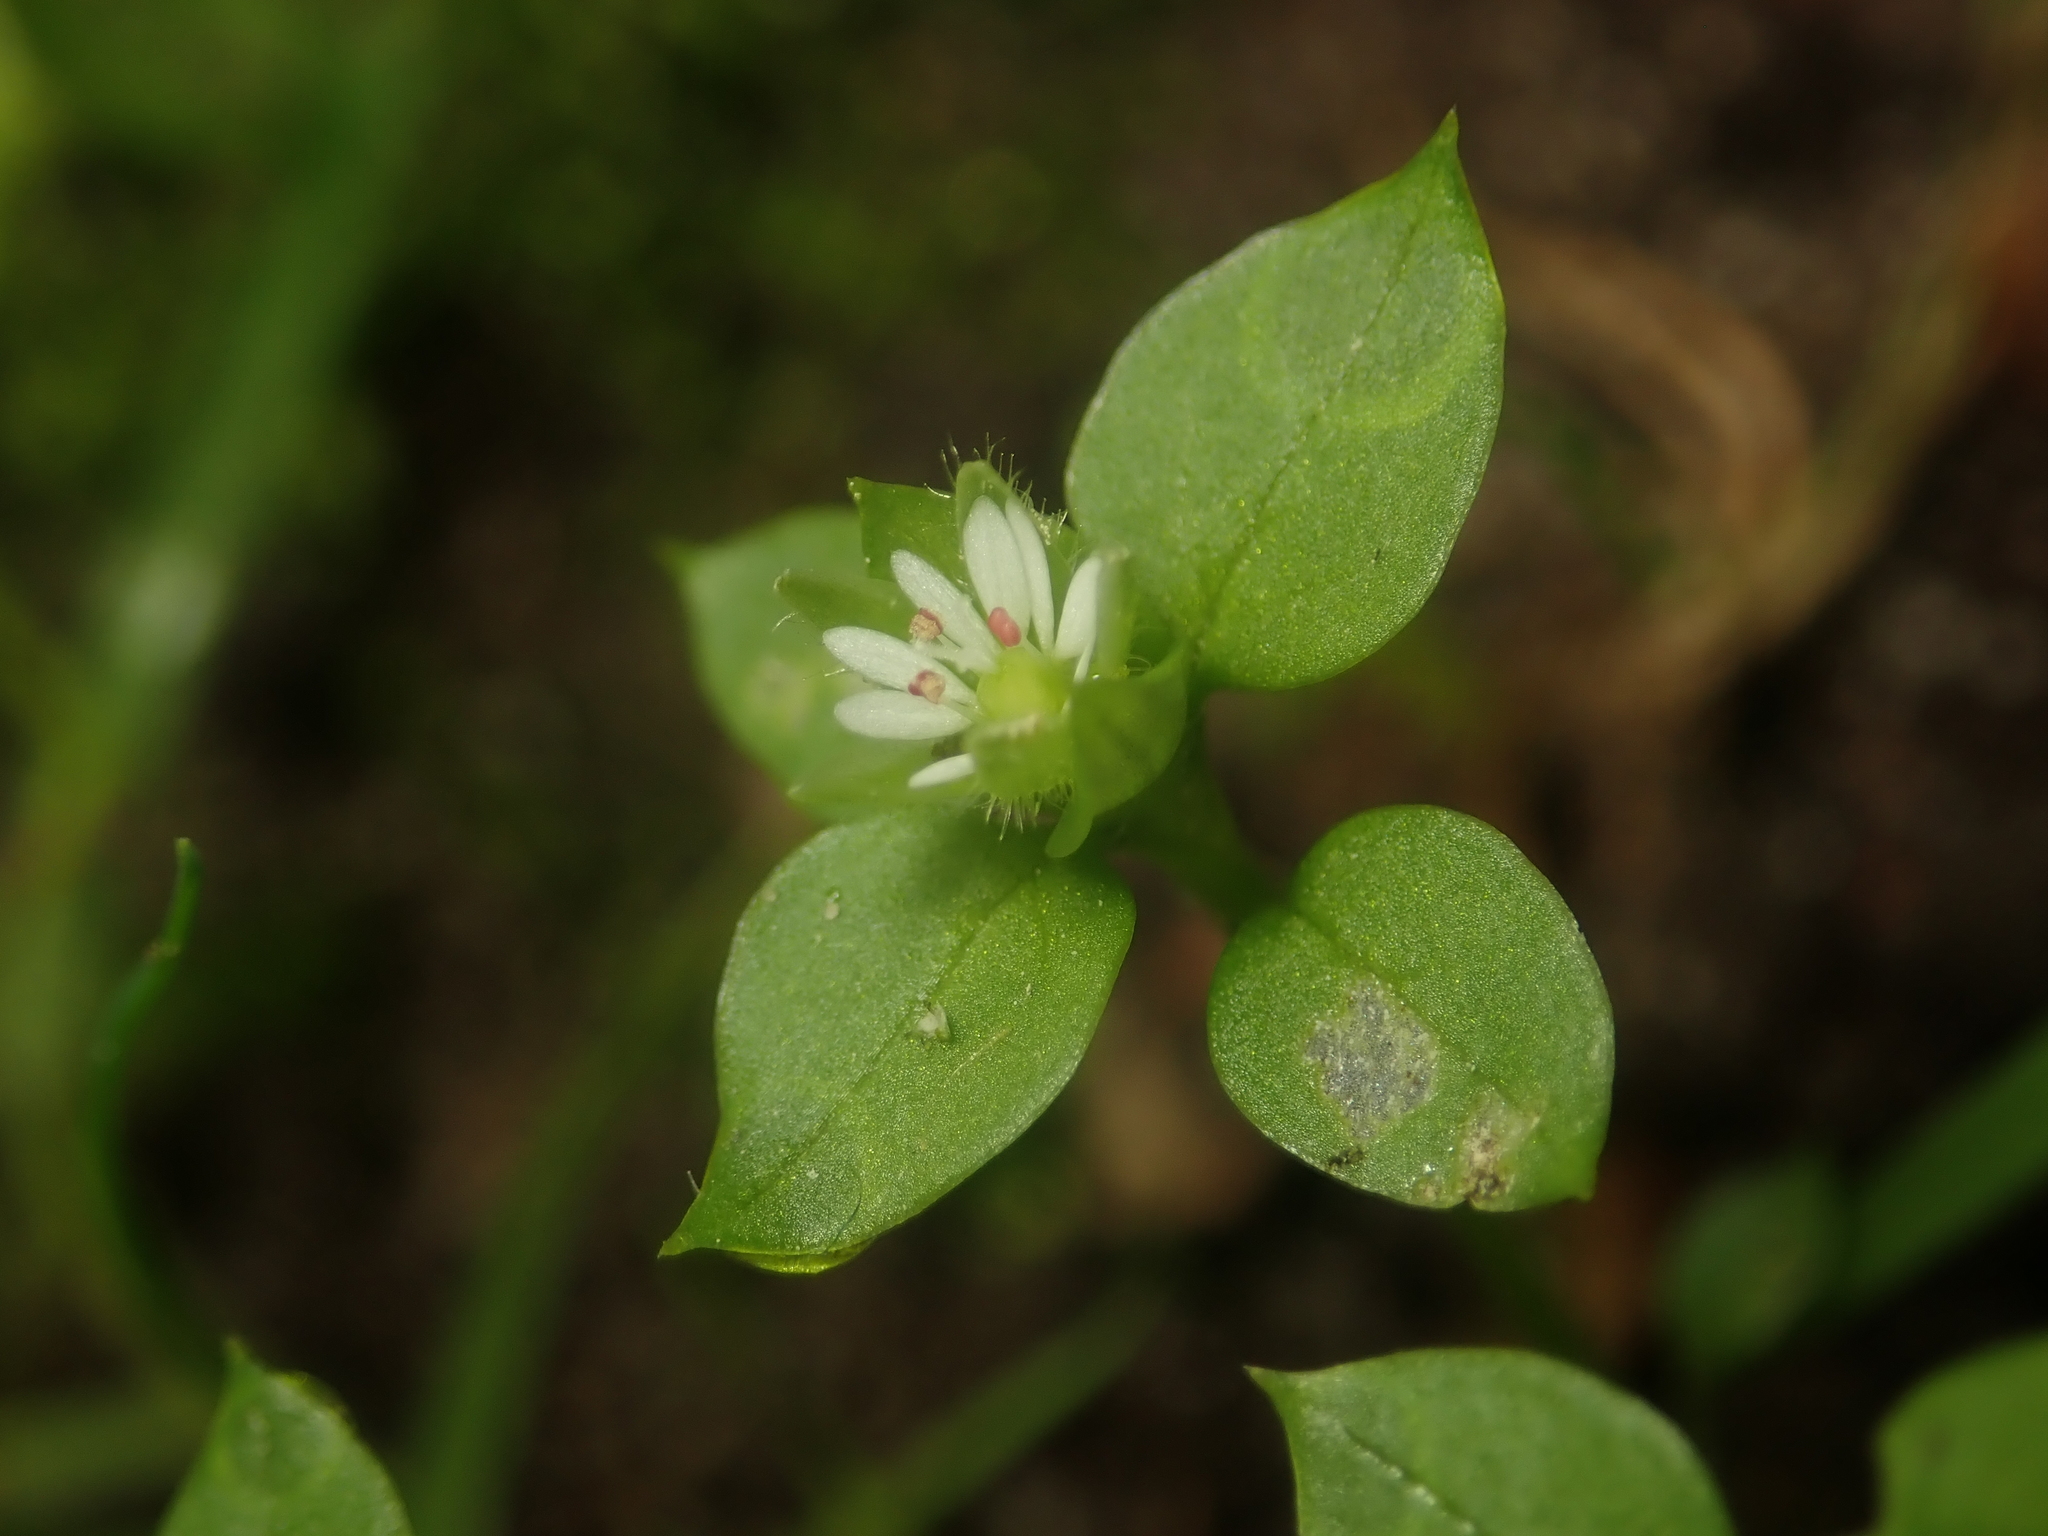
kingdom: Plantae
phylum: Tracheophyta
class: Magnoliopsida
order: Caryophyllales
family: Caryophyllaceae
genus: Stellaria
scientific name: Stellaria media
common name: Common chickweed
